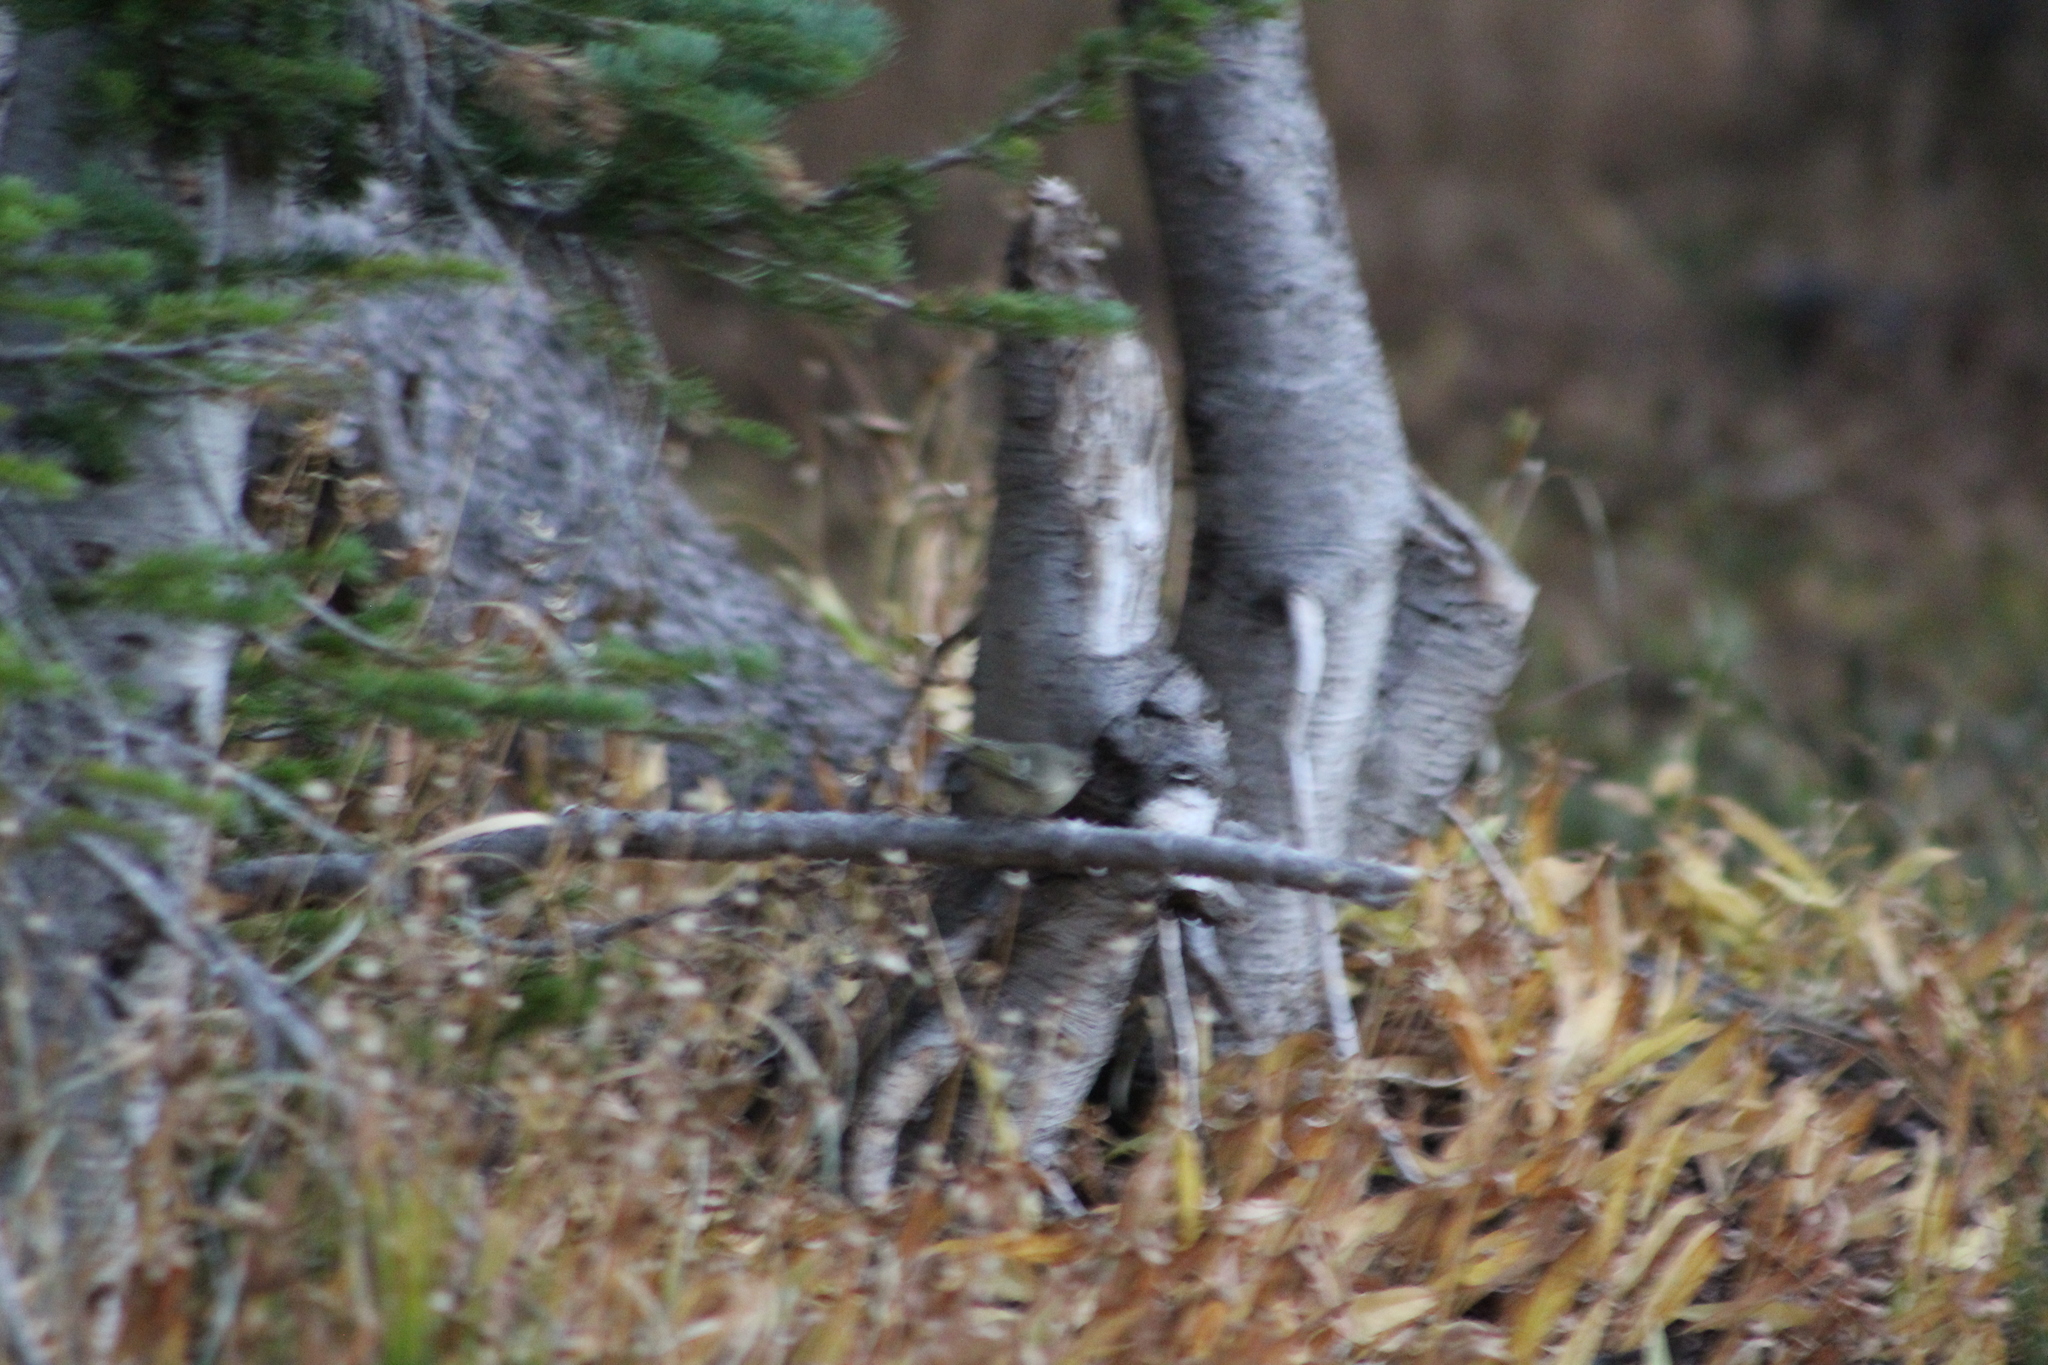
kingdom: Animalia
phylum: Chordata
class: Aves
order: Passeriformes
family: Regulidae
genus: Regulus
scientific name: Regulus calendula
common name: Ruby-crowned kinglet
